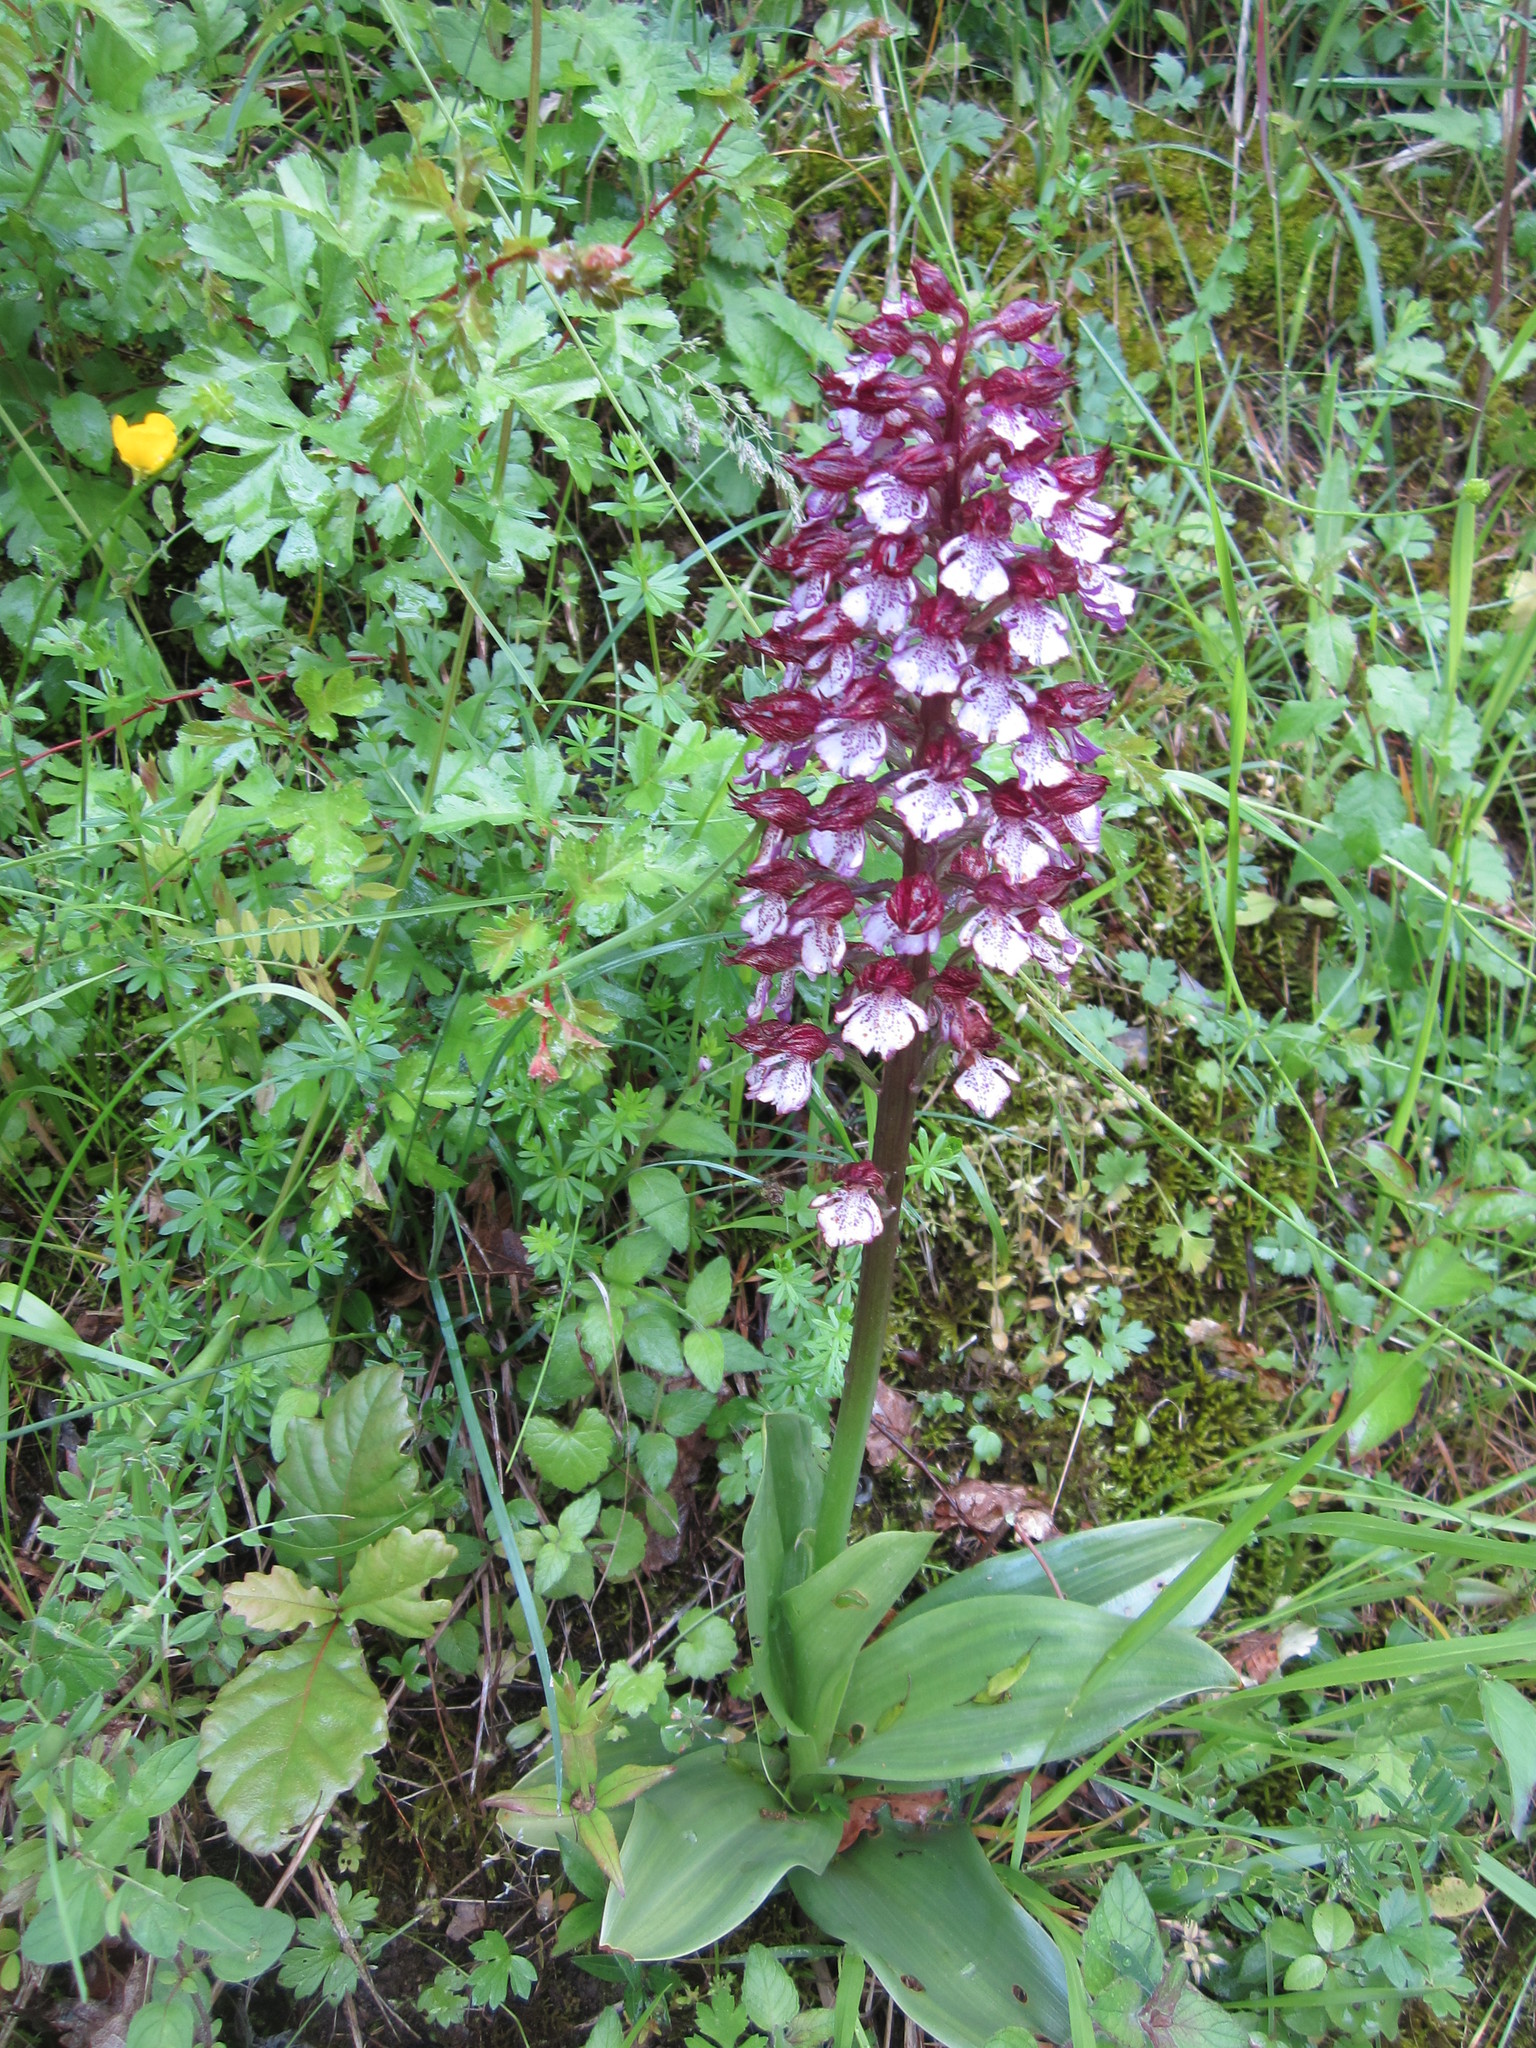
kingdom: Plantae
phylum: Tracheophyta
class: Liliopsida
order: Asparagales
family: Orchidaceae
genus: Orchis
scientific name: Orchis purpurea
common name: Lady orchid
